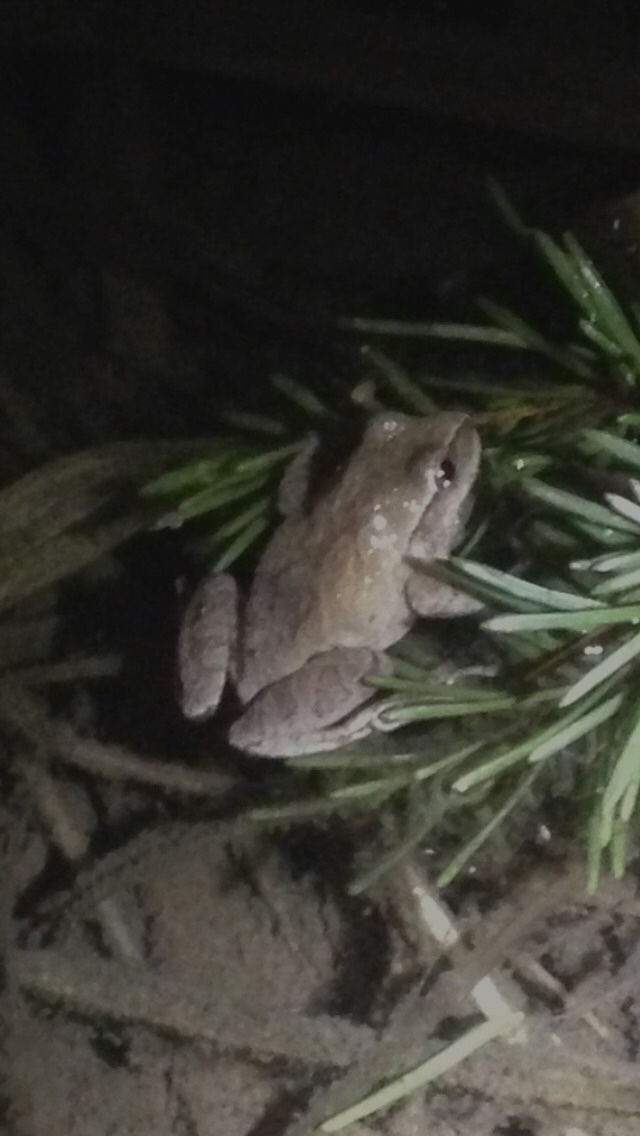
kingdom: Animalia
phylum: Chordata
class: Amphibia
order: Anura
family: Hylidae
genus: Pseudacris
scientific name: Pseudacris crucifer
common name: Spring peeper
